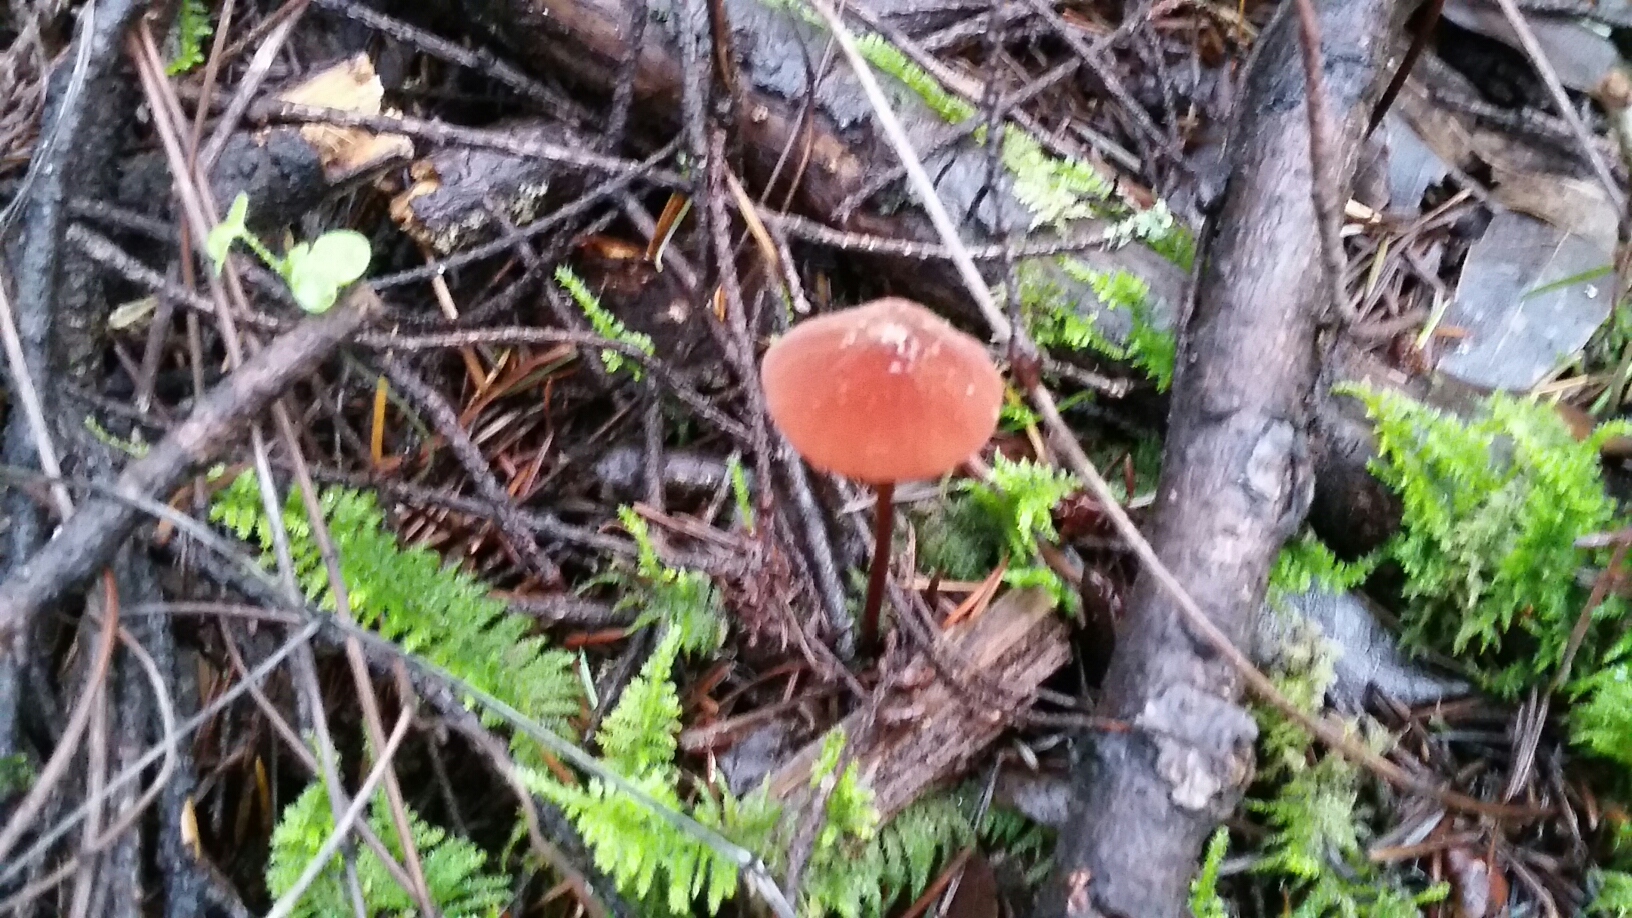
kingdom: Fungi
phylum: Basidiomycota
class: Agaricomycetes
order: Agaricales
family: Marasmiaceae
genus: Marasmius
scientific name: Marasmius plicatulus
